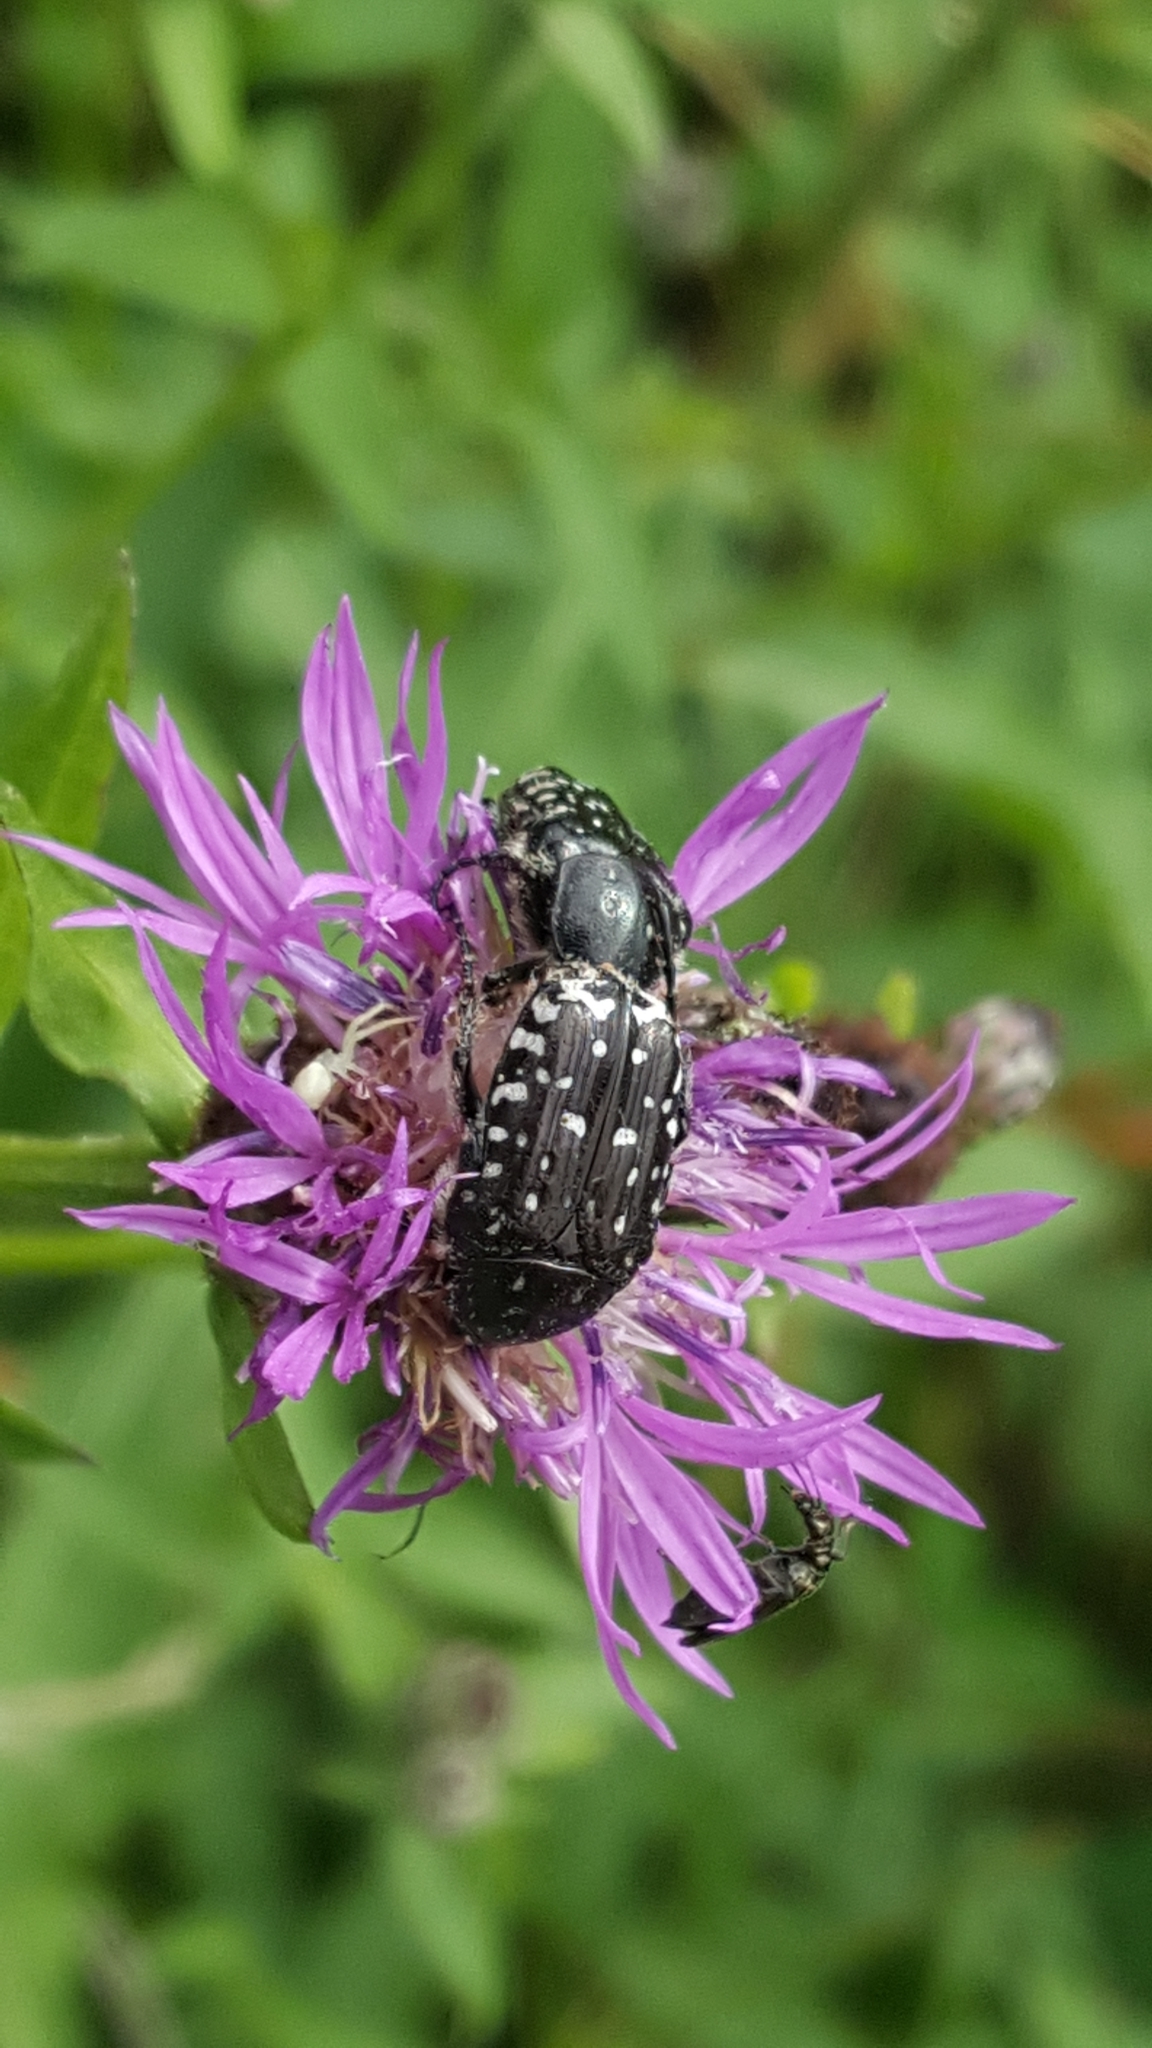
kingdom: Animalia
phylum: Arthropoda
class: Insecta
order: Coleoptera
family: Scarabaeidae
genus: Oxythyrea
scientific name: Oxythyrea funesta
